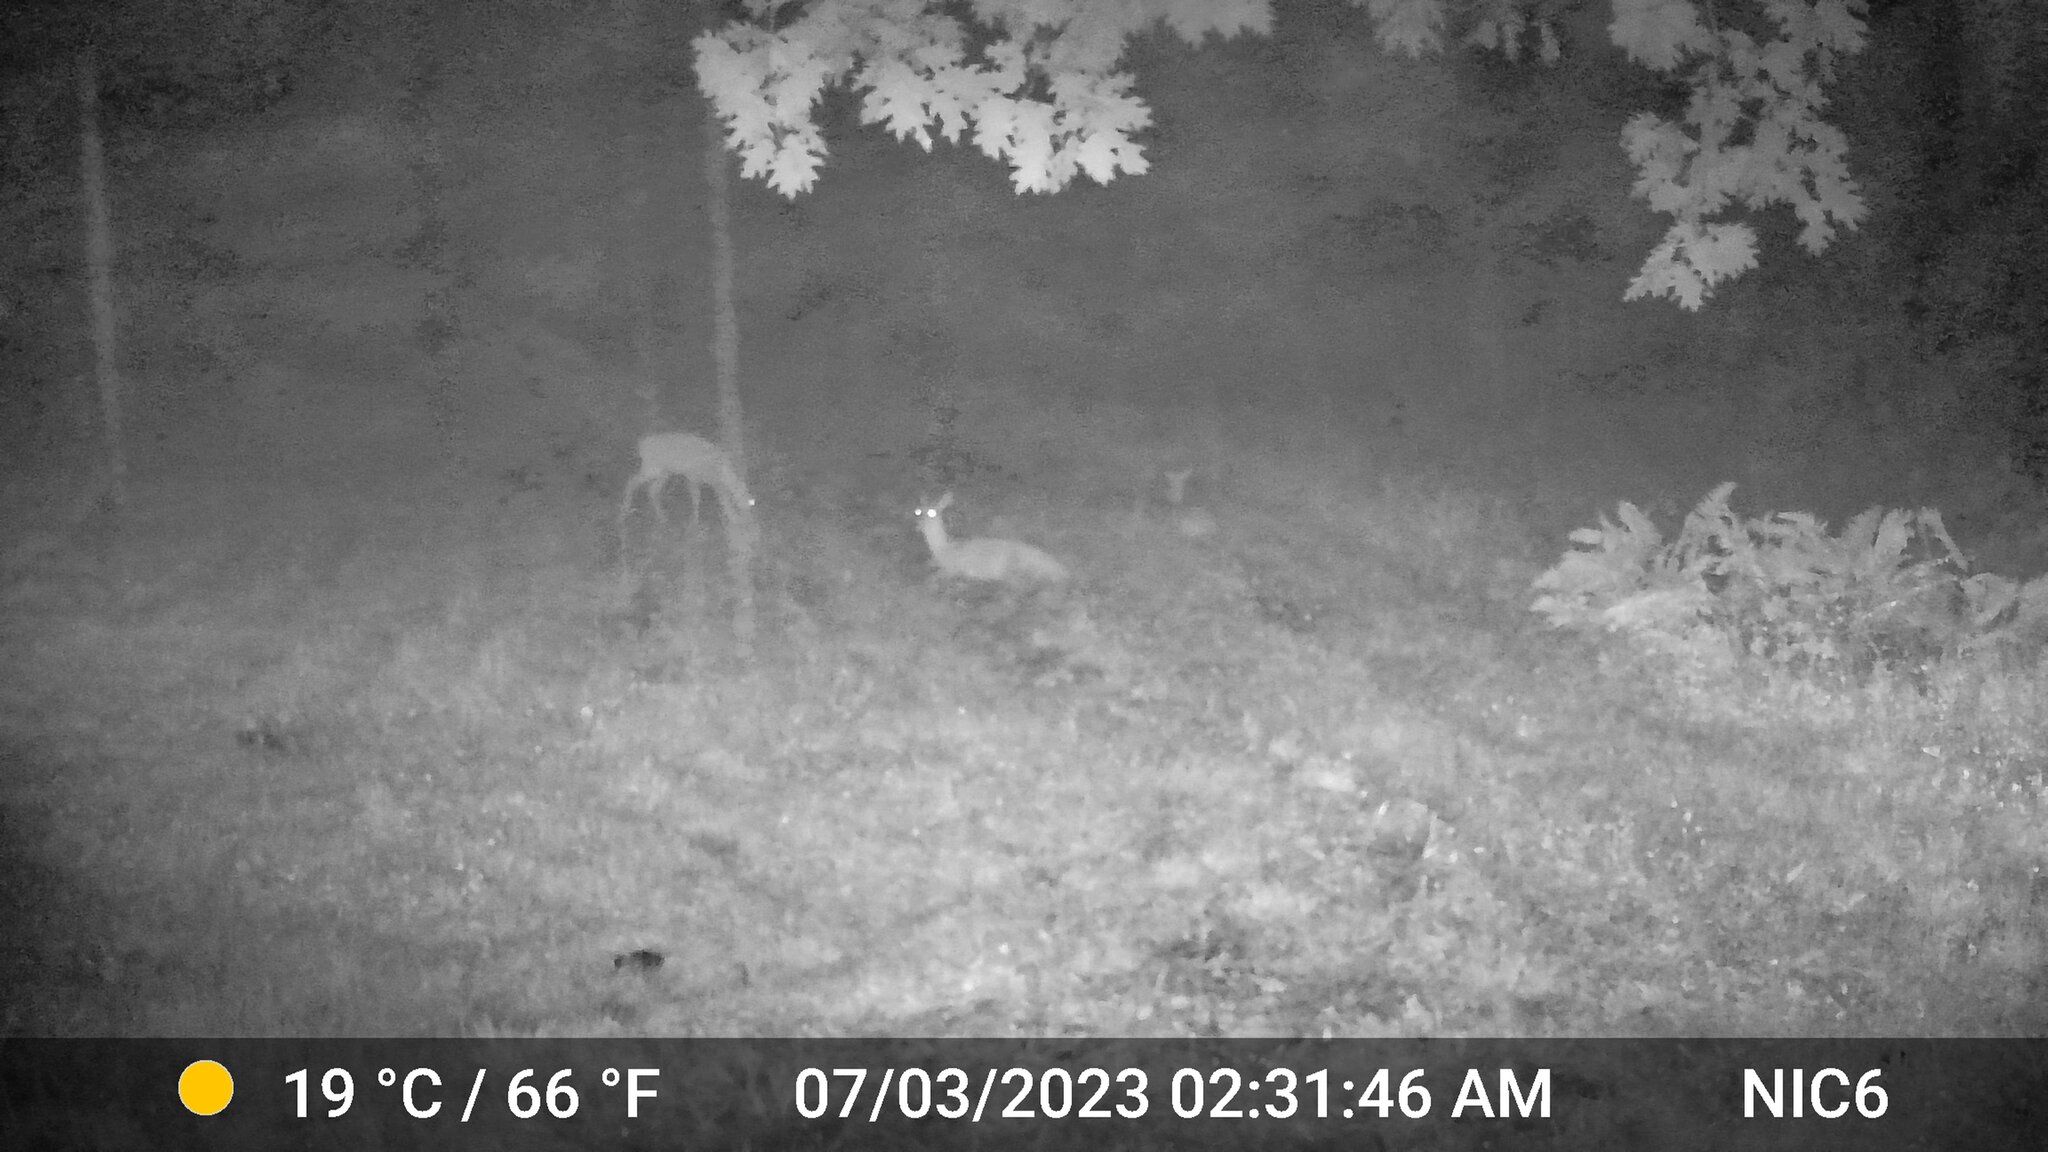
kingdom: Animalia
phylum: Chordata
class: Mammalia
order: Artiodactyla
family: Cervidae
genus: Odocoileus
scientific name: Odocoileus virginianus
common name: White-tailed deer
